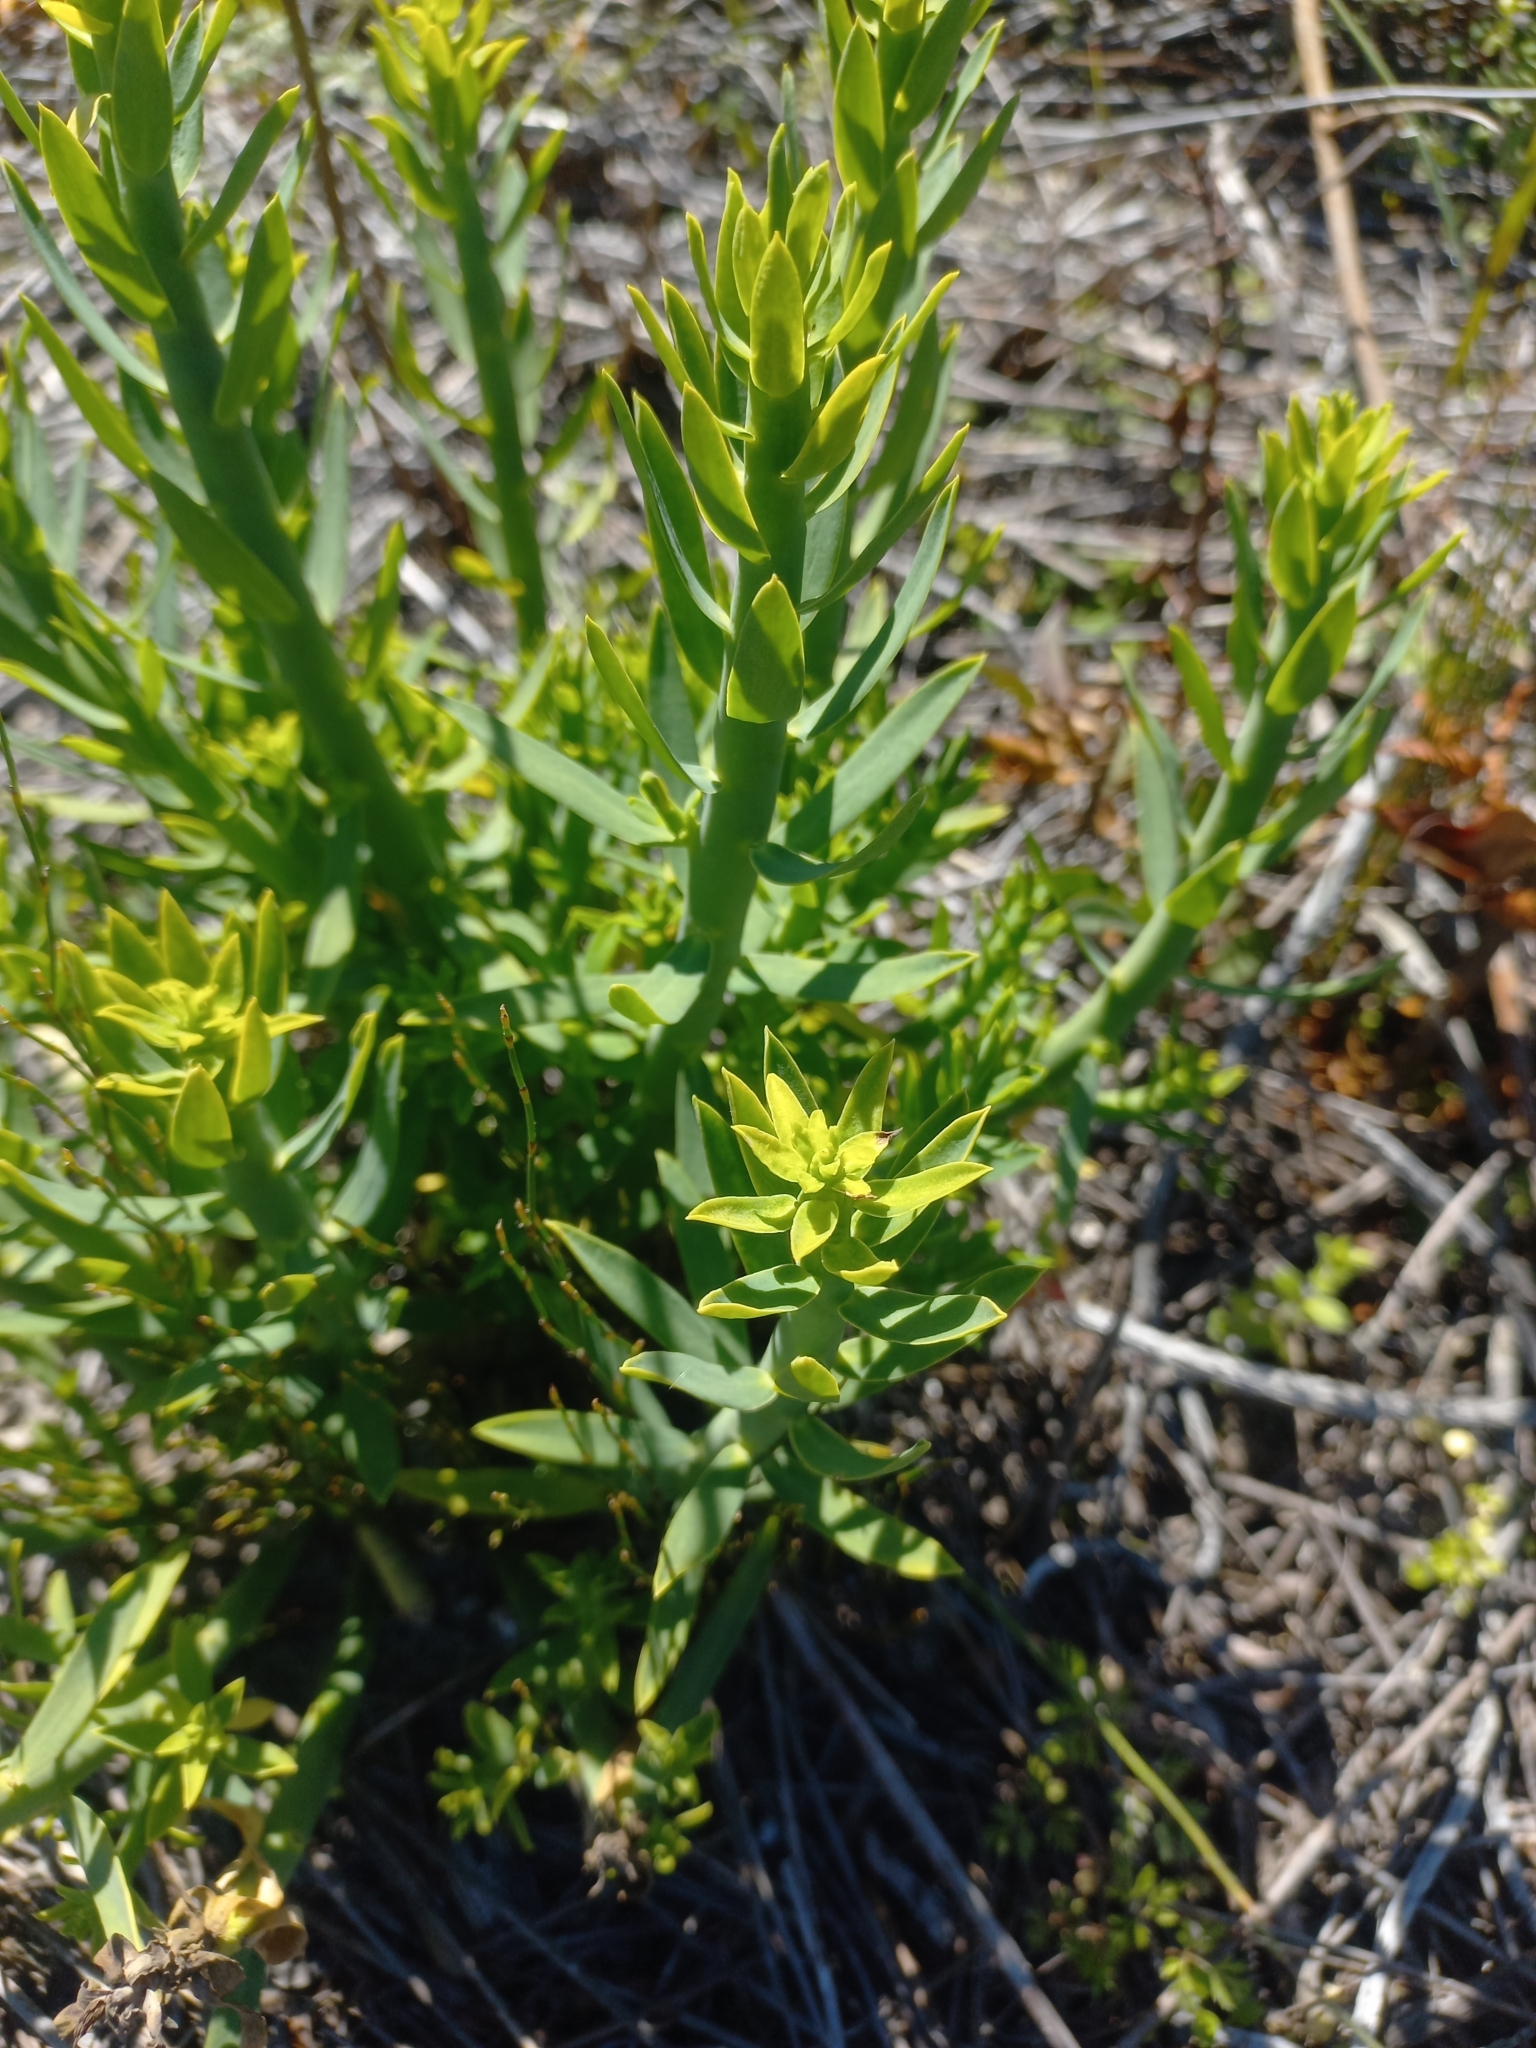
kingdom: Plantae
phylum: Tracheophyta
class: Magnoliopsida
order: Malpighiales
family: Euphorbiaceae
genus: Euphorbia
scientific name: Euphorbia mauritanica
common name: Jackal's-food
